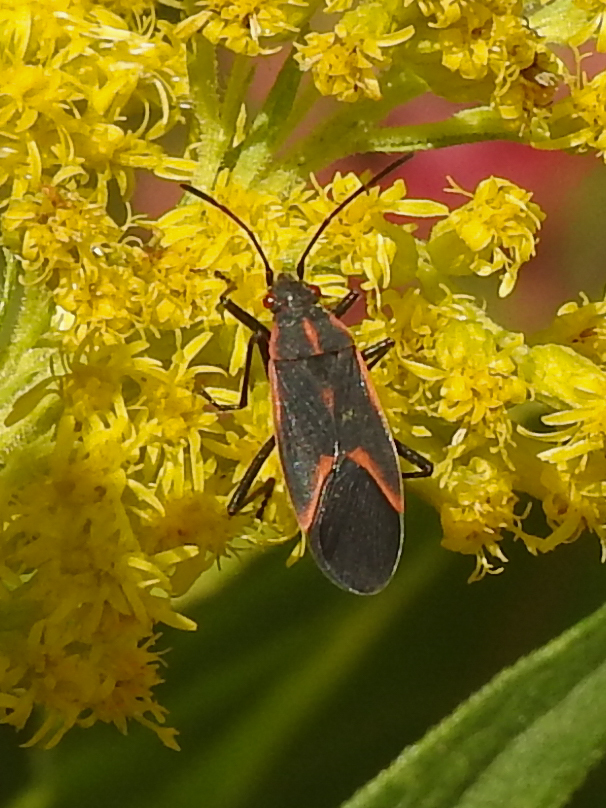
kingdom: Animalia
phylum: Arthropoda
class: Insecta
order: Hemiptera
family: Rhopalidae
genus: Boisea
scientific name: Boisea trivittata
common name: Boxelder bug
